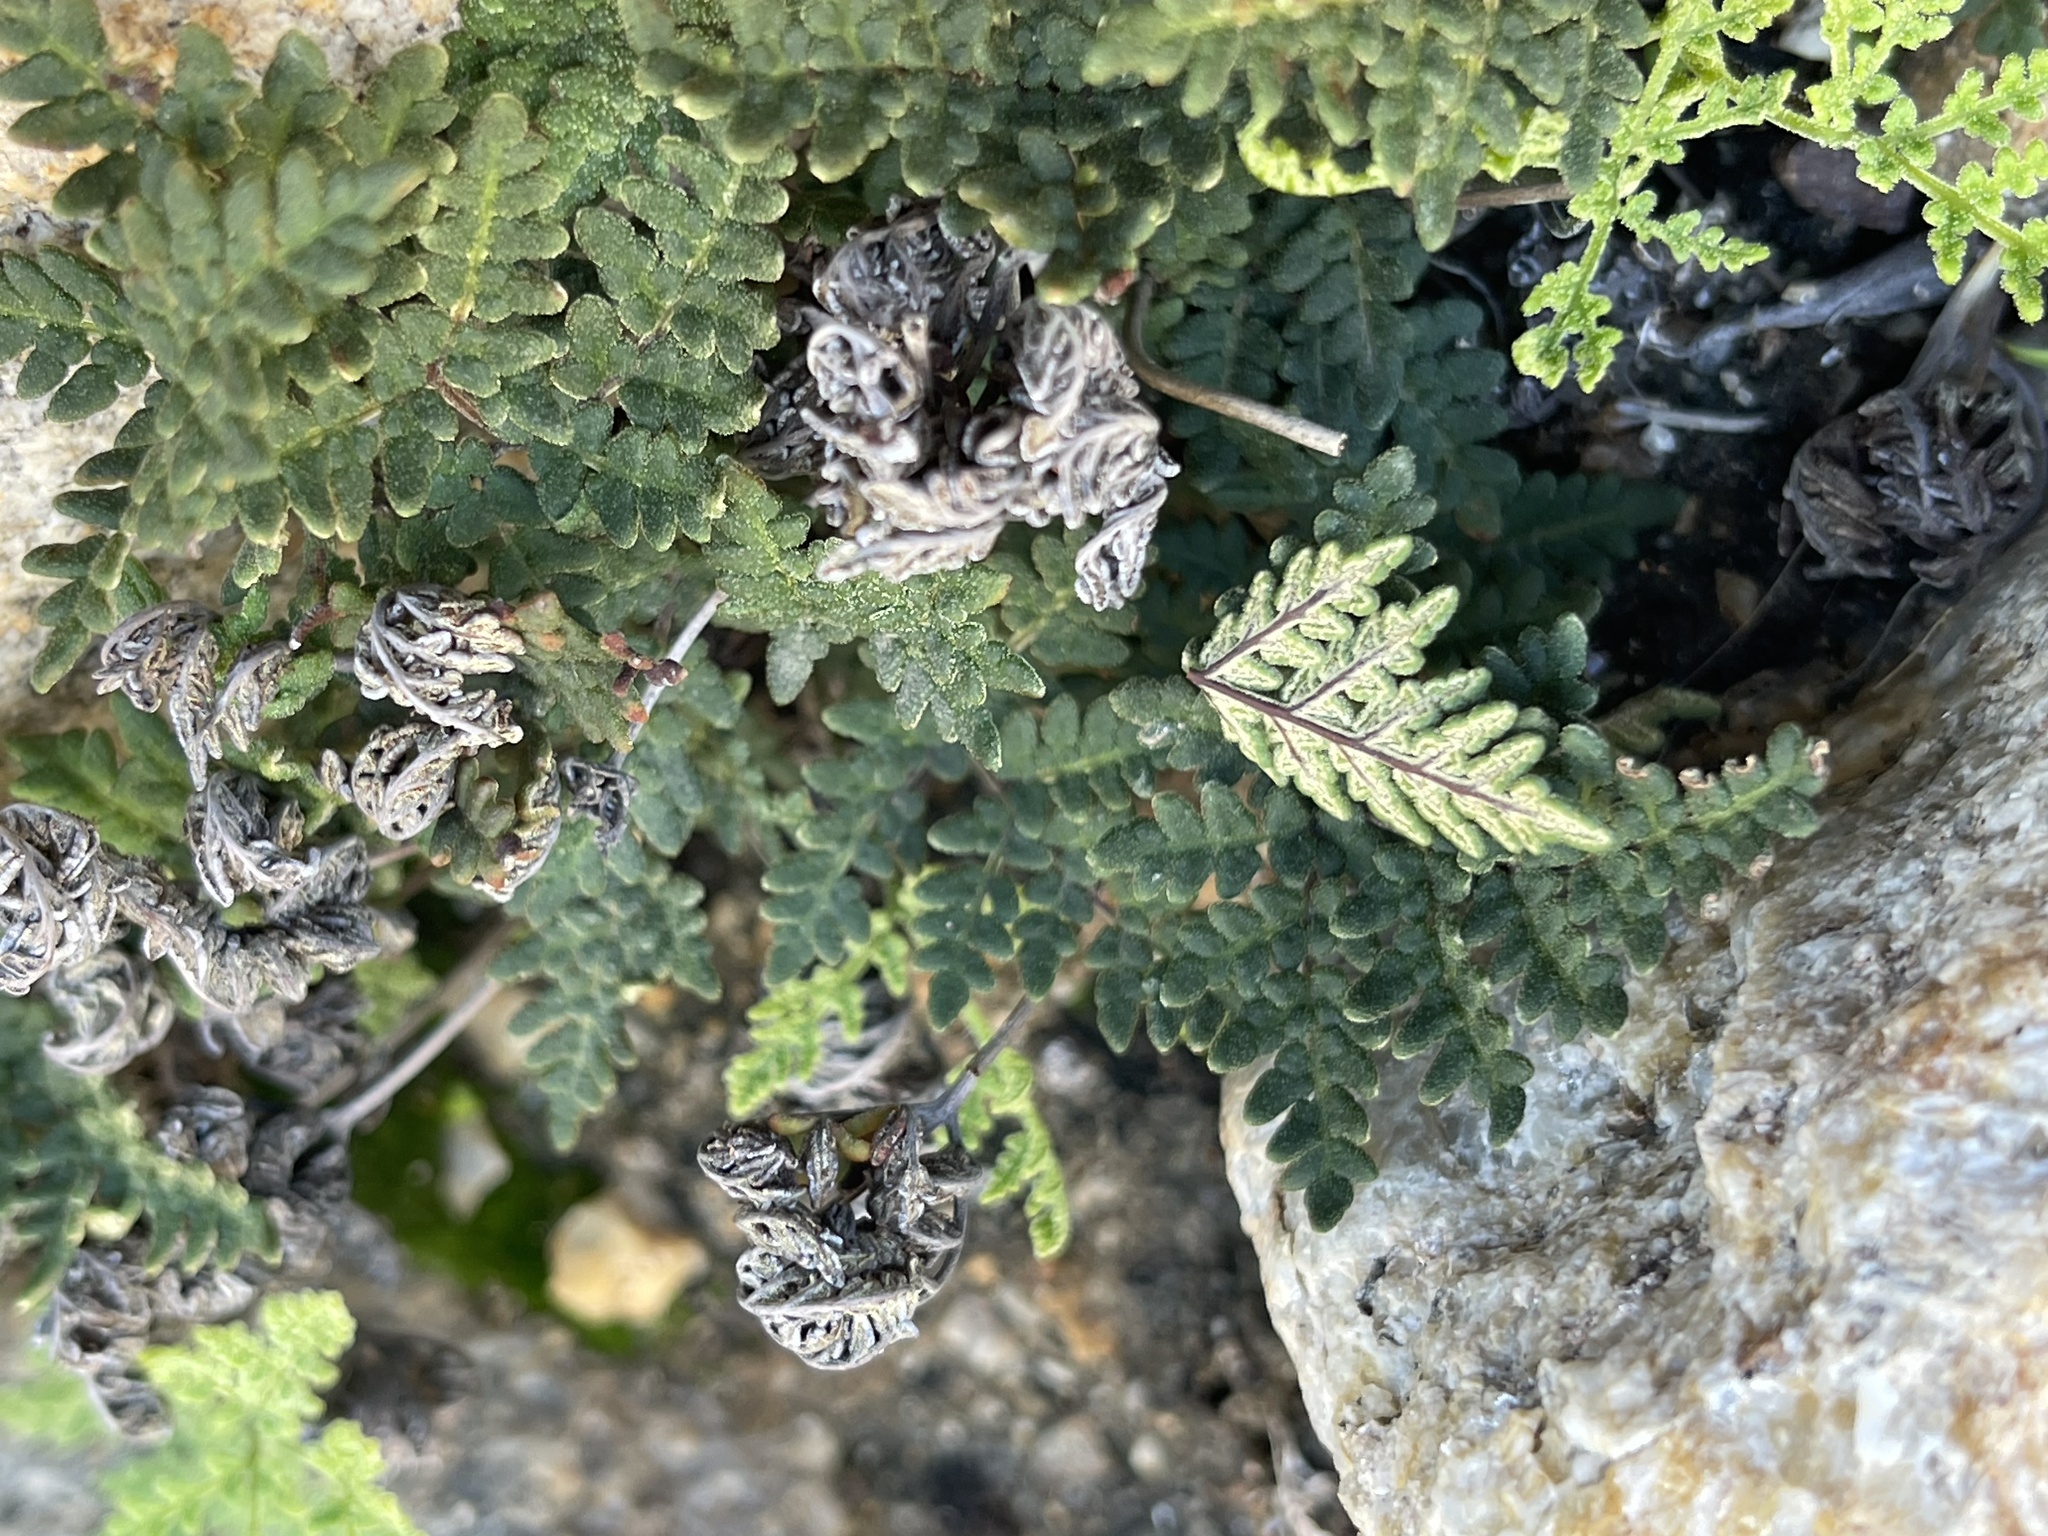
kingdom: Plantae
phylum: Tracheophyta
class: Polypodiopsida
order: Polypodiales
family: Pteridaceae
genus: Notholaena
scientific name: Notholaena californica
